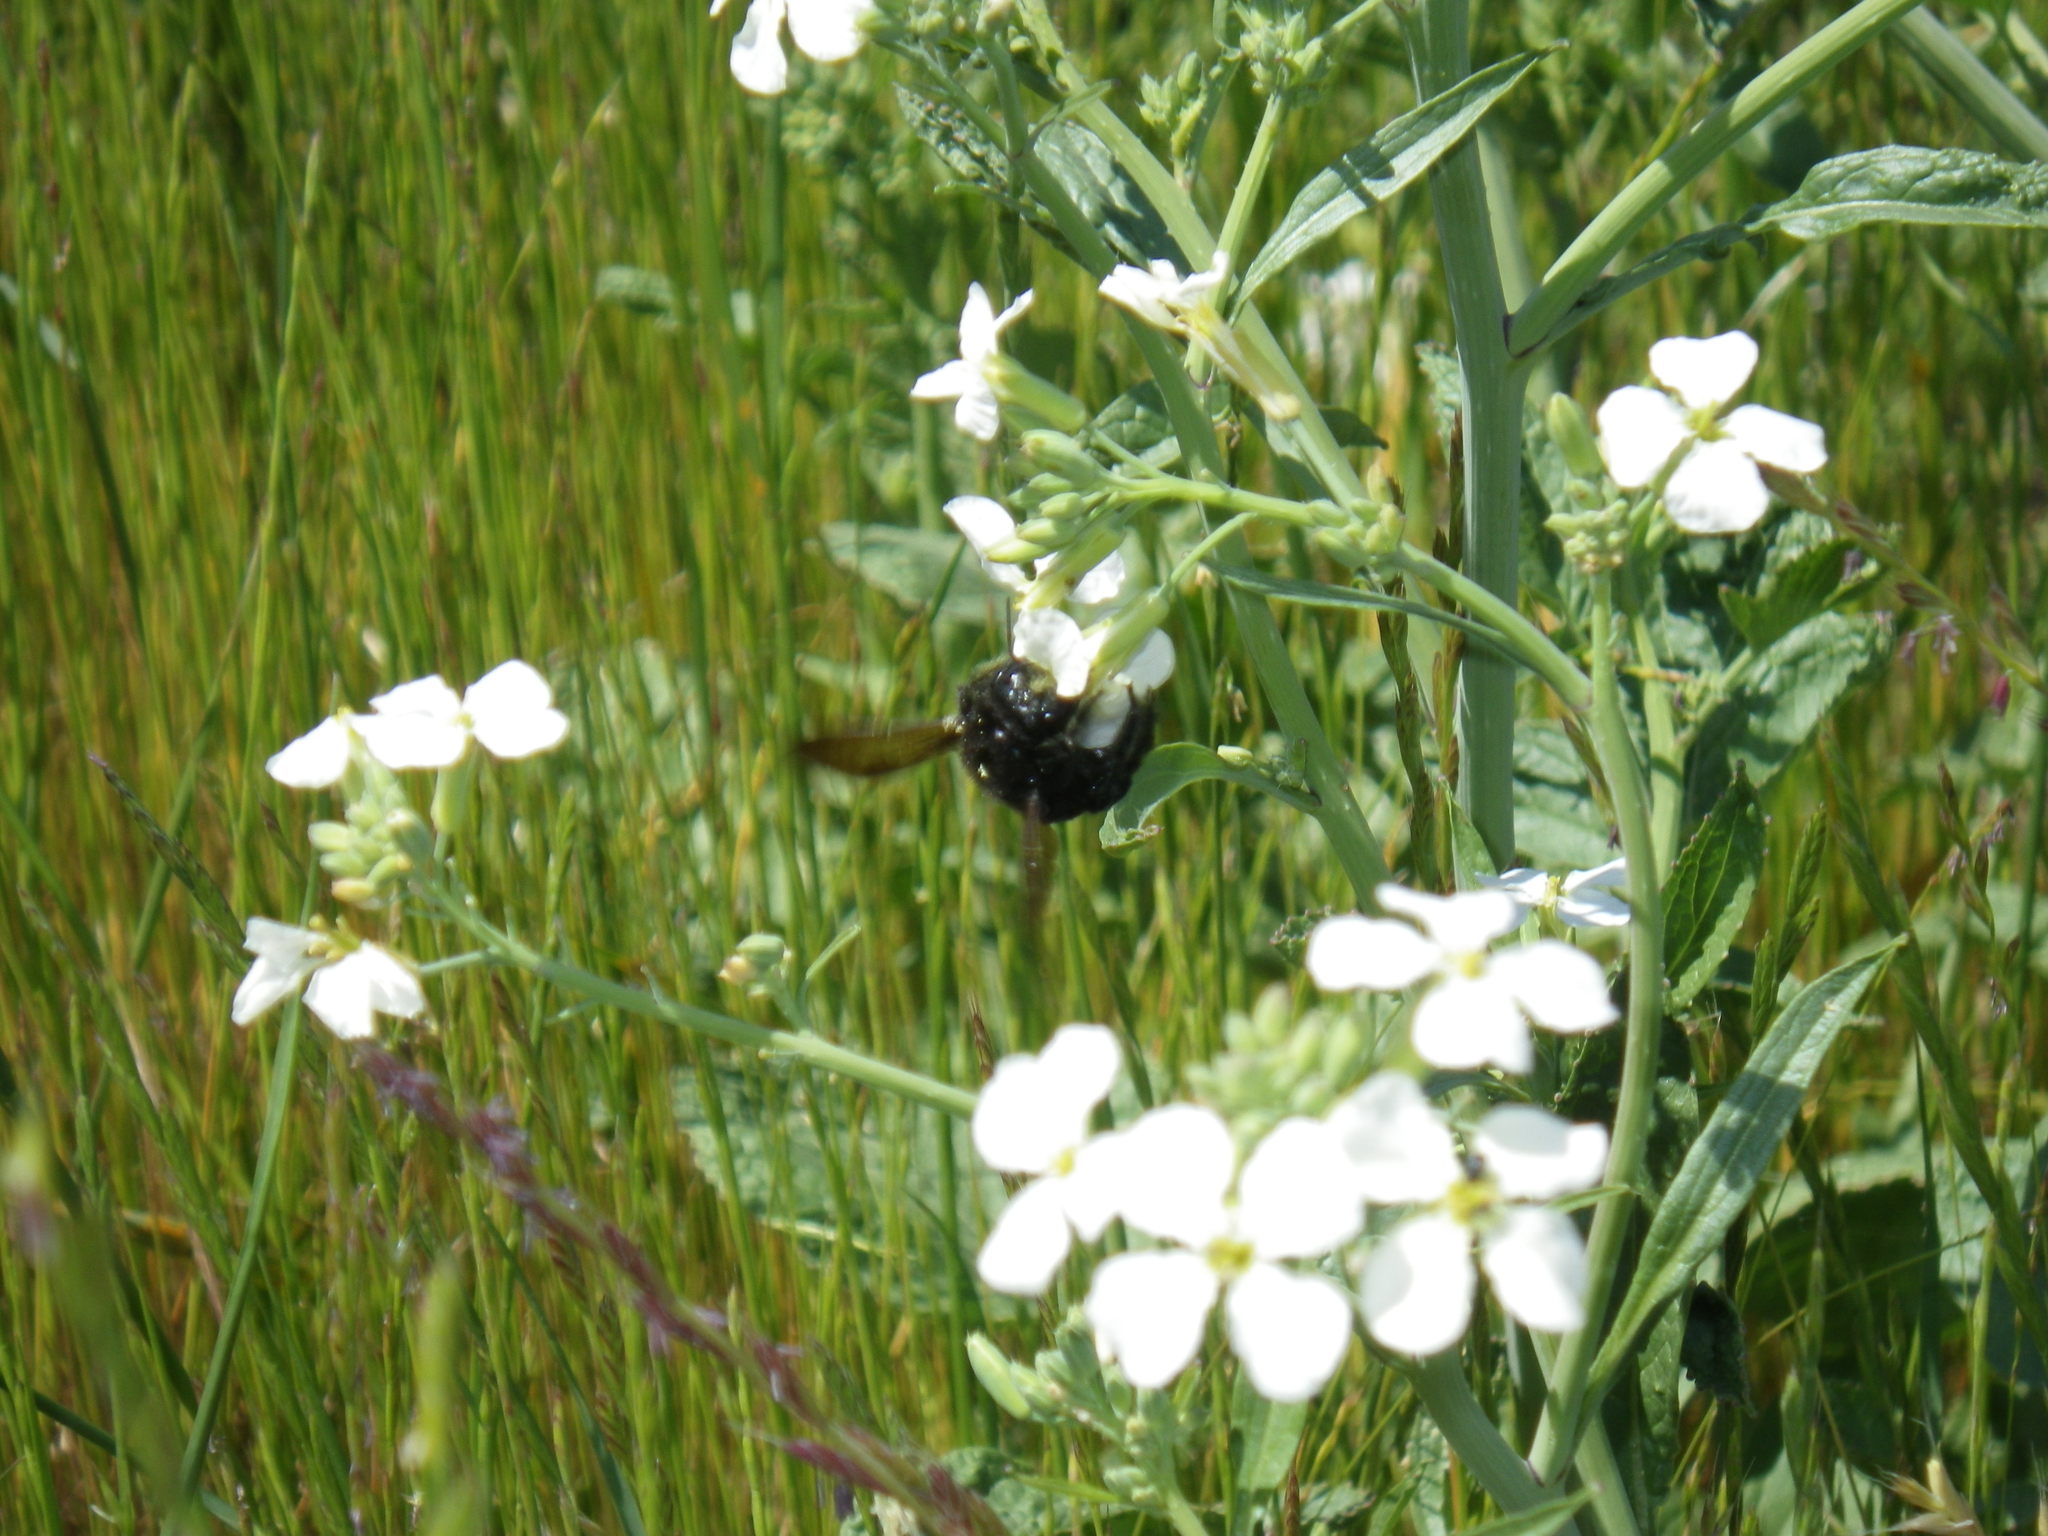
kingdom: Animalia
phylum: Arthropoda
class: Insecta
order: Hymenoptera
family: Apidae
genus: Xylocopa
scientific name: Xylocopa
